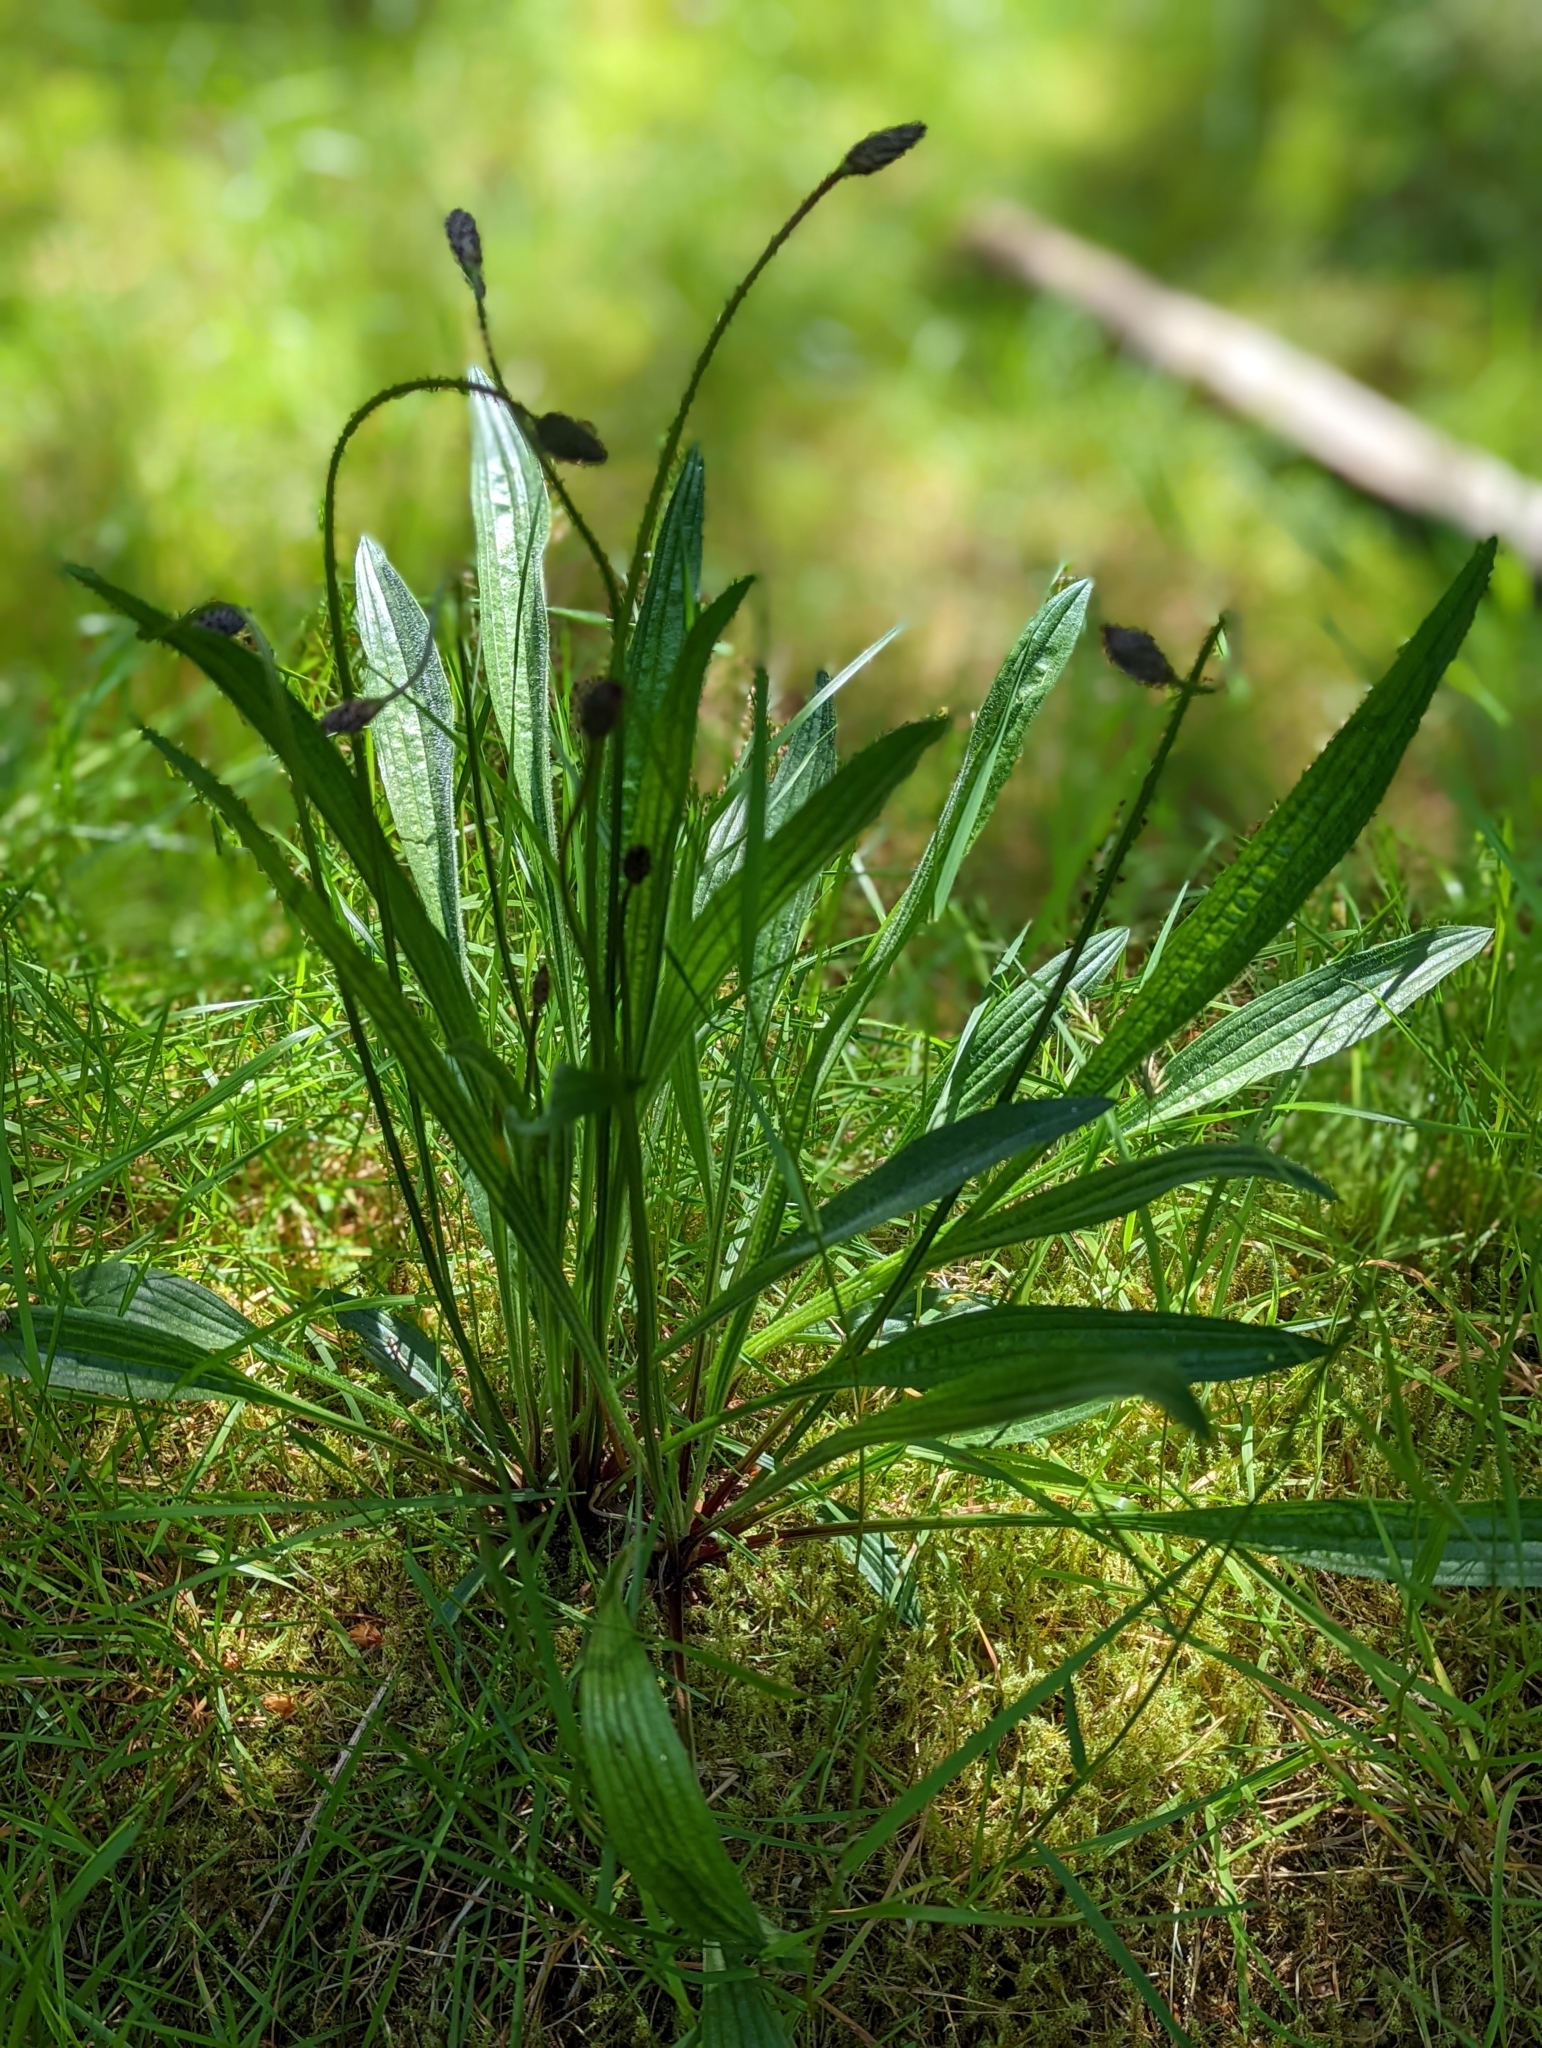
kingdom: Plantae
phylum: Tracheophyta
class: Magnoliopsida
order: Lamiales
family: Plantaginaceae
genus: Plantago
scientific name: Plantago lanceolata
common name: Ribwort plantain
